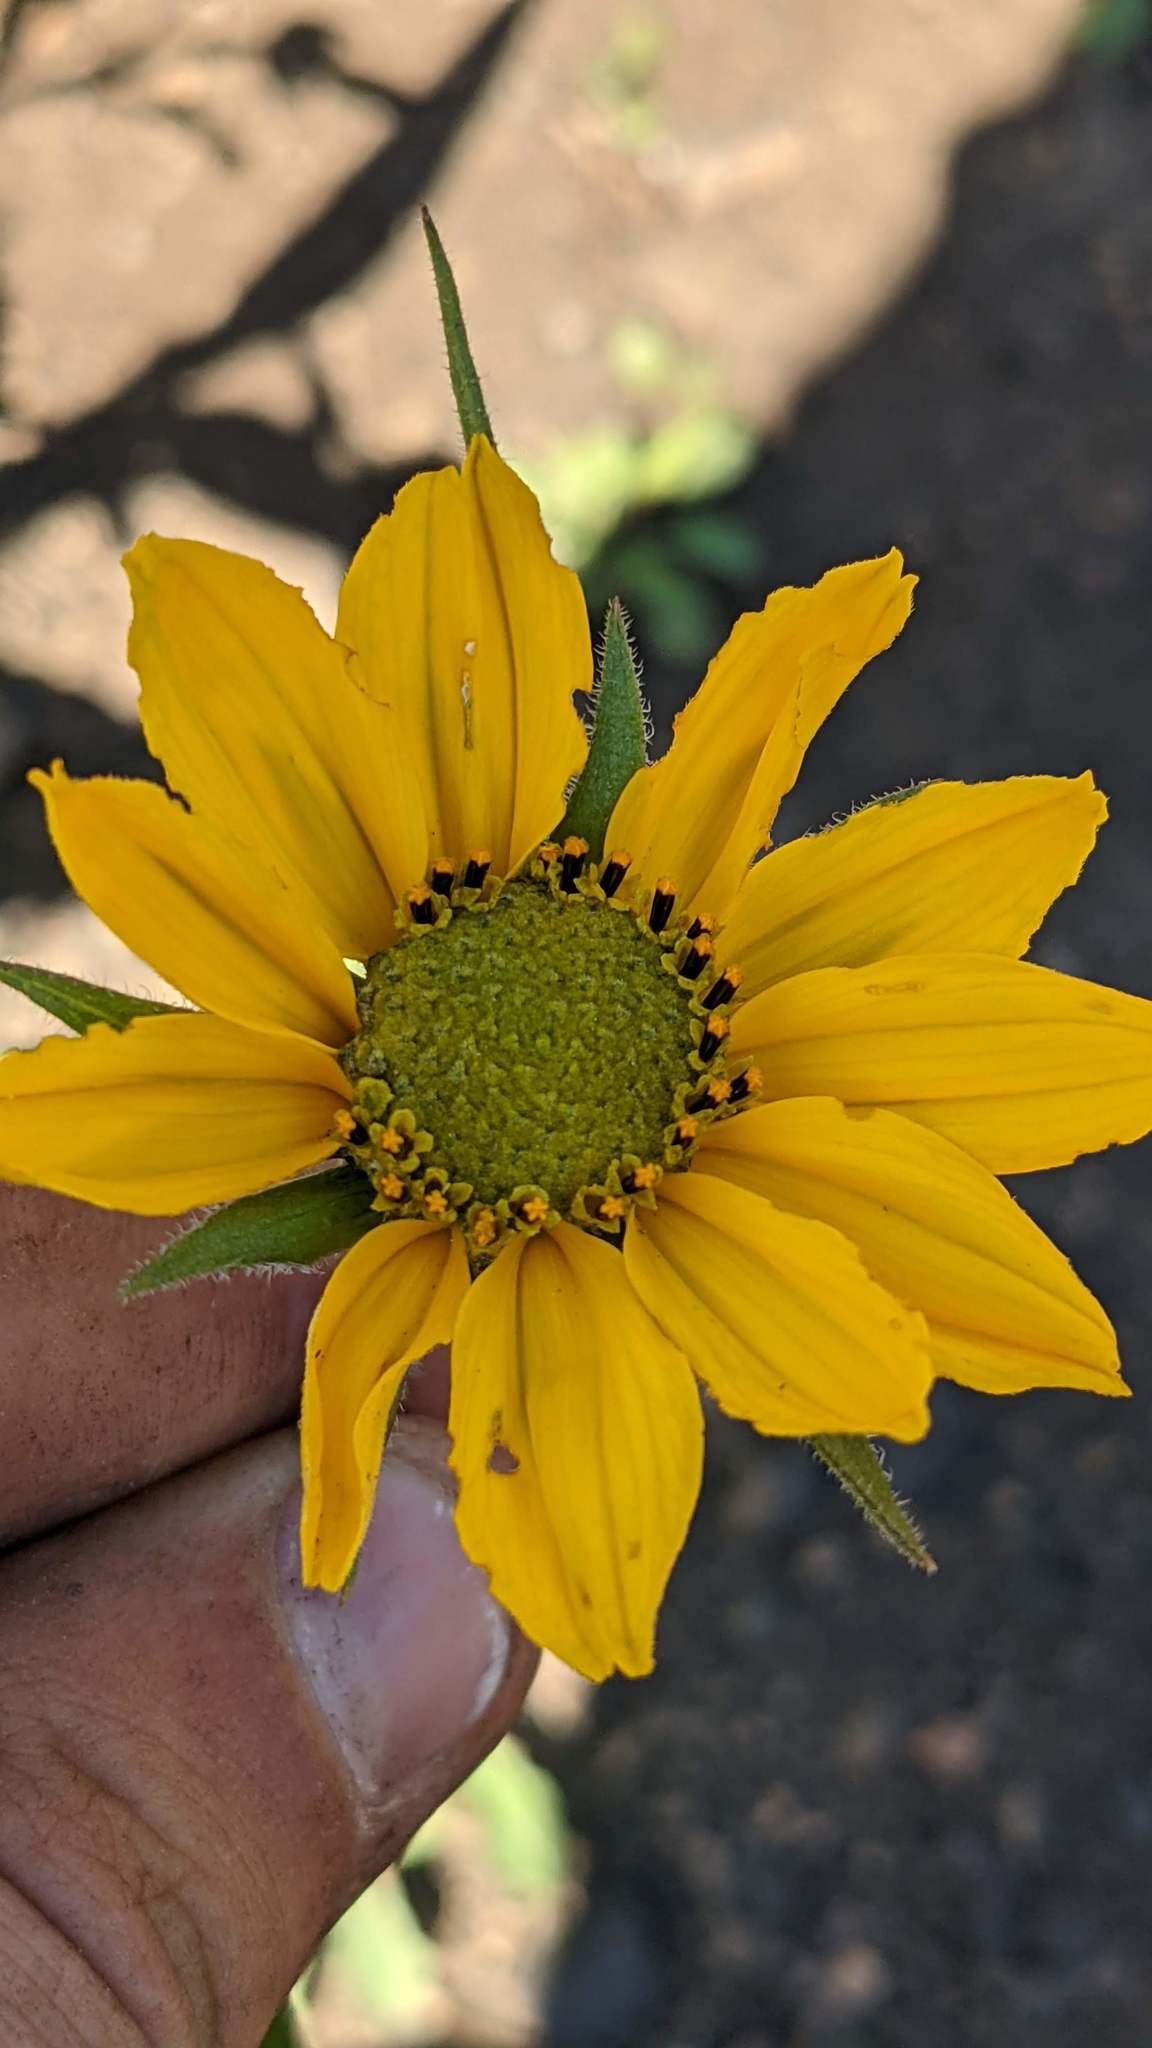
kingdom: Plantae
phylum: Tracheophyta
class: Magnoliopsida
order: Asterales
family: Asteraceae
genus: Helianthella
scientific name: Helianthella californica
